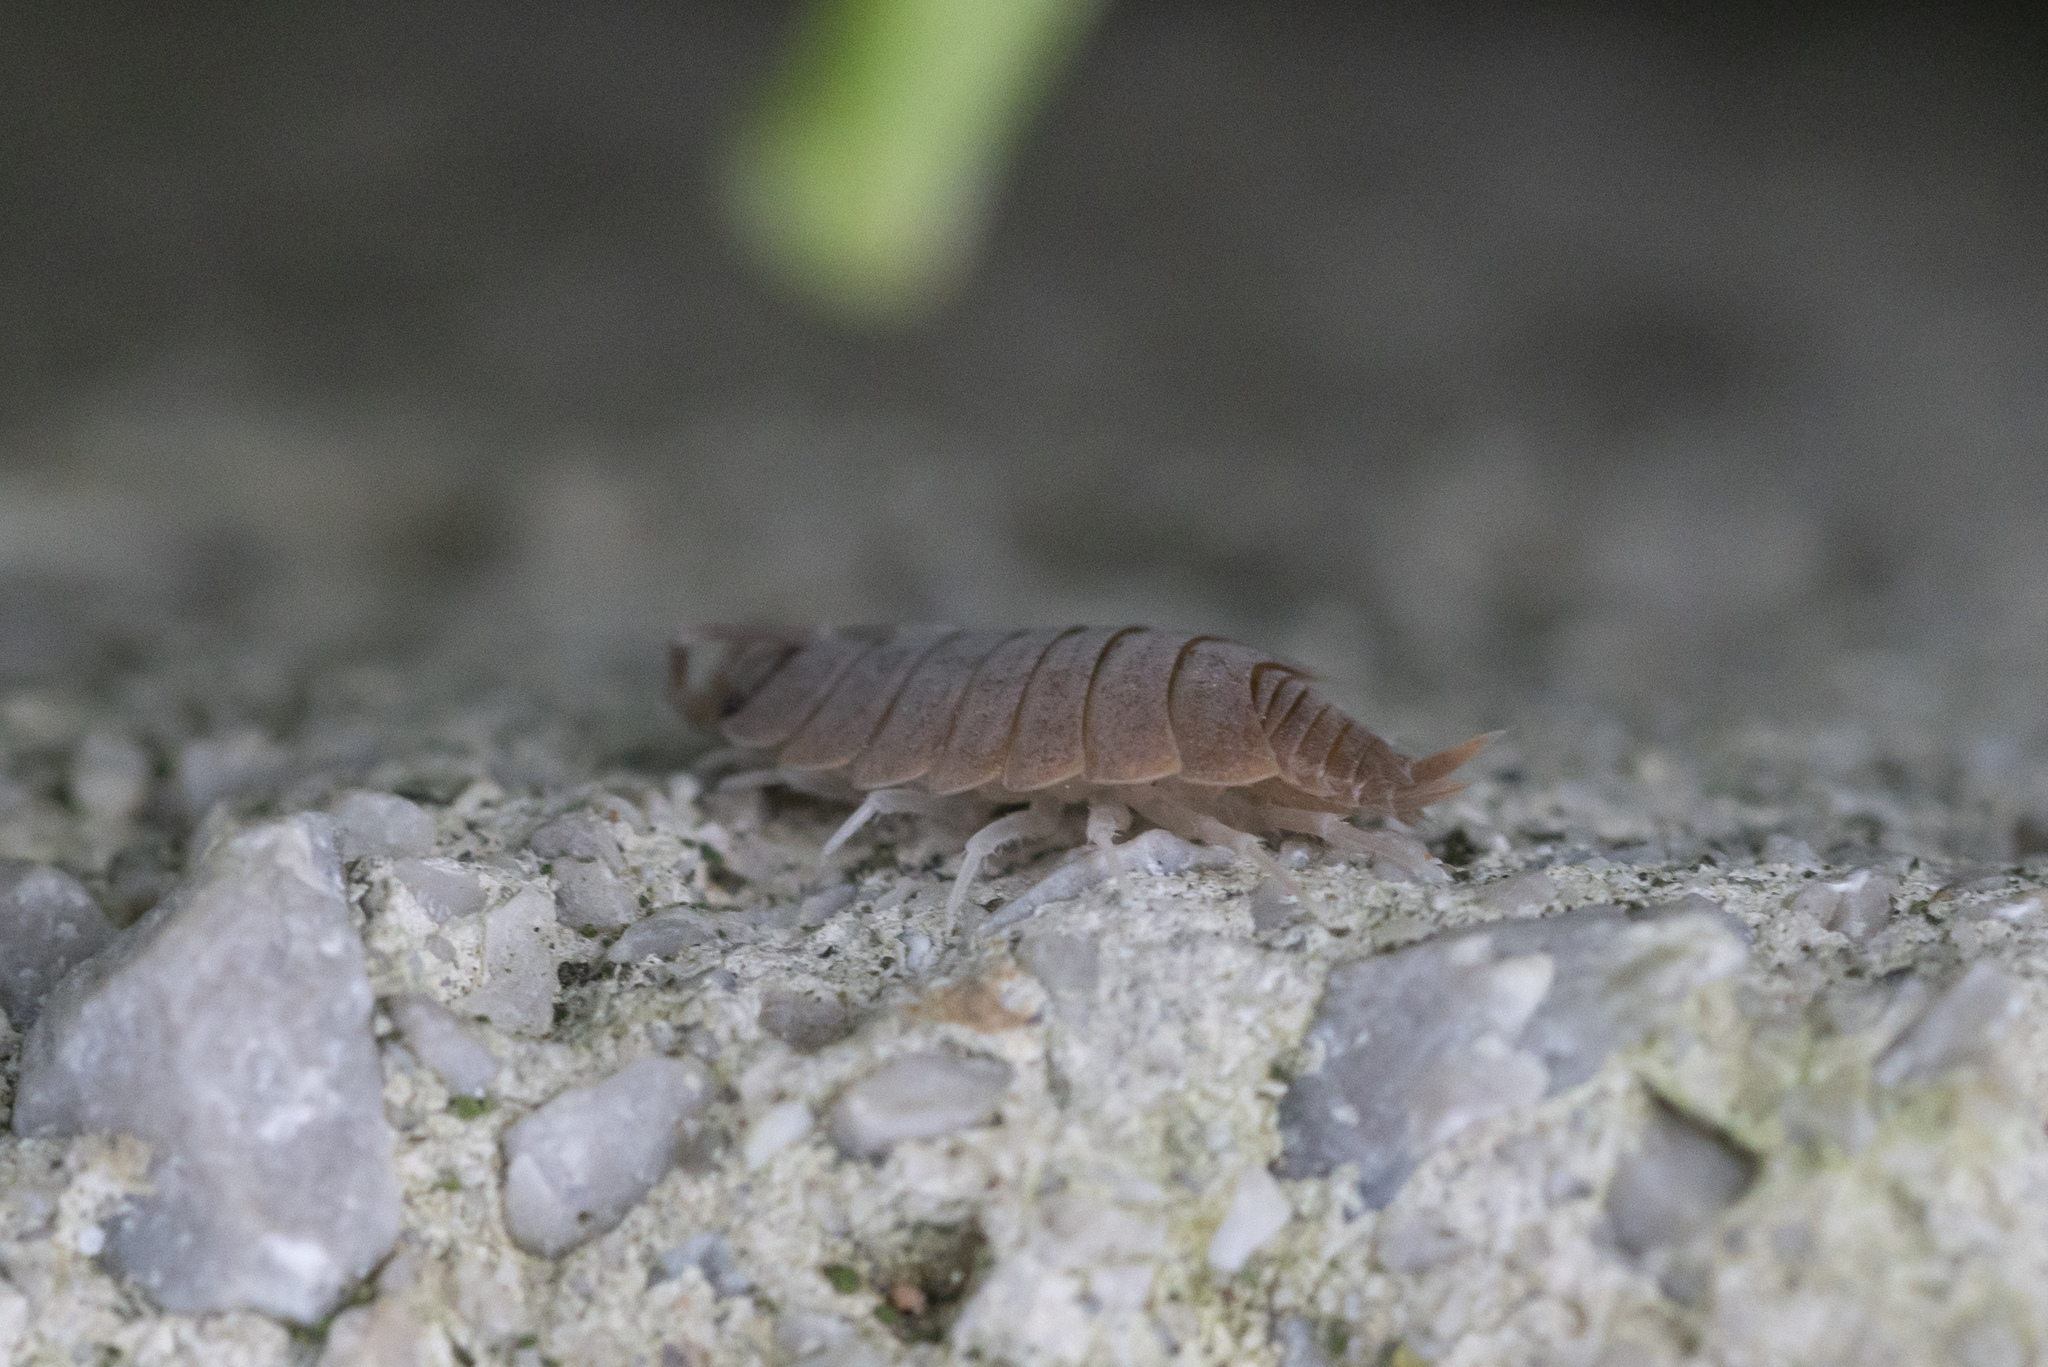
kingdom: Animalia
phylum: Arthropoda
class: Malacostraca
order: Isopoda
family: Porcellionidae
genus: Porcellionides
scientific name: Porcellionides pruinosus
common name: Plum woodlouse
